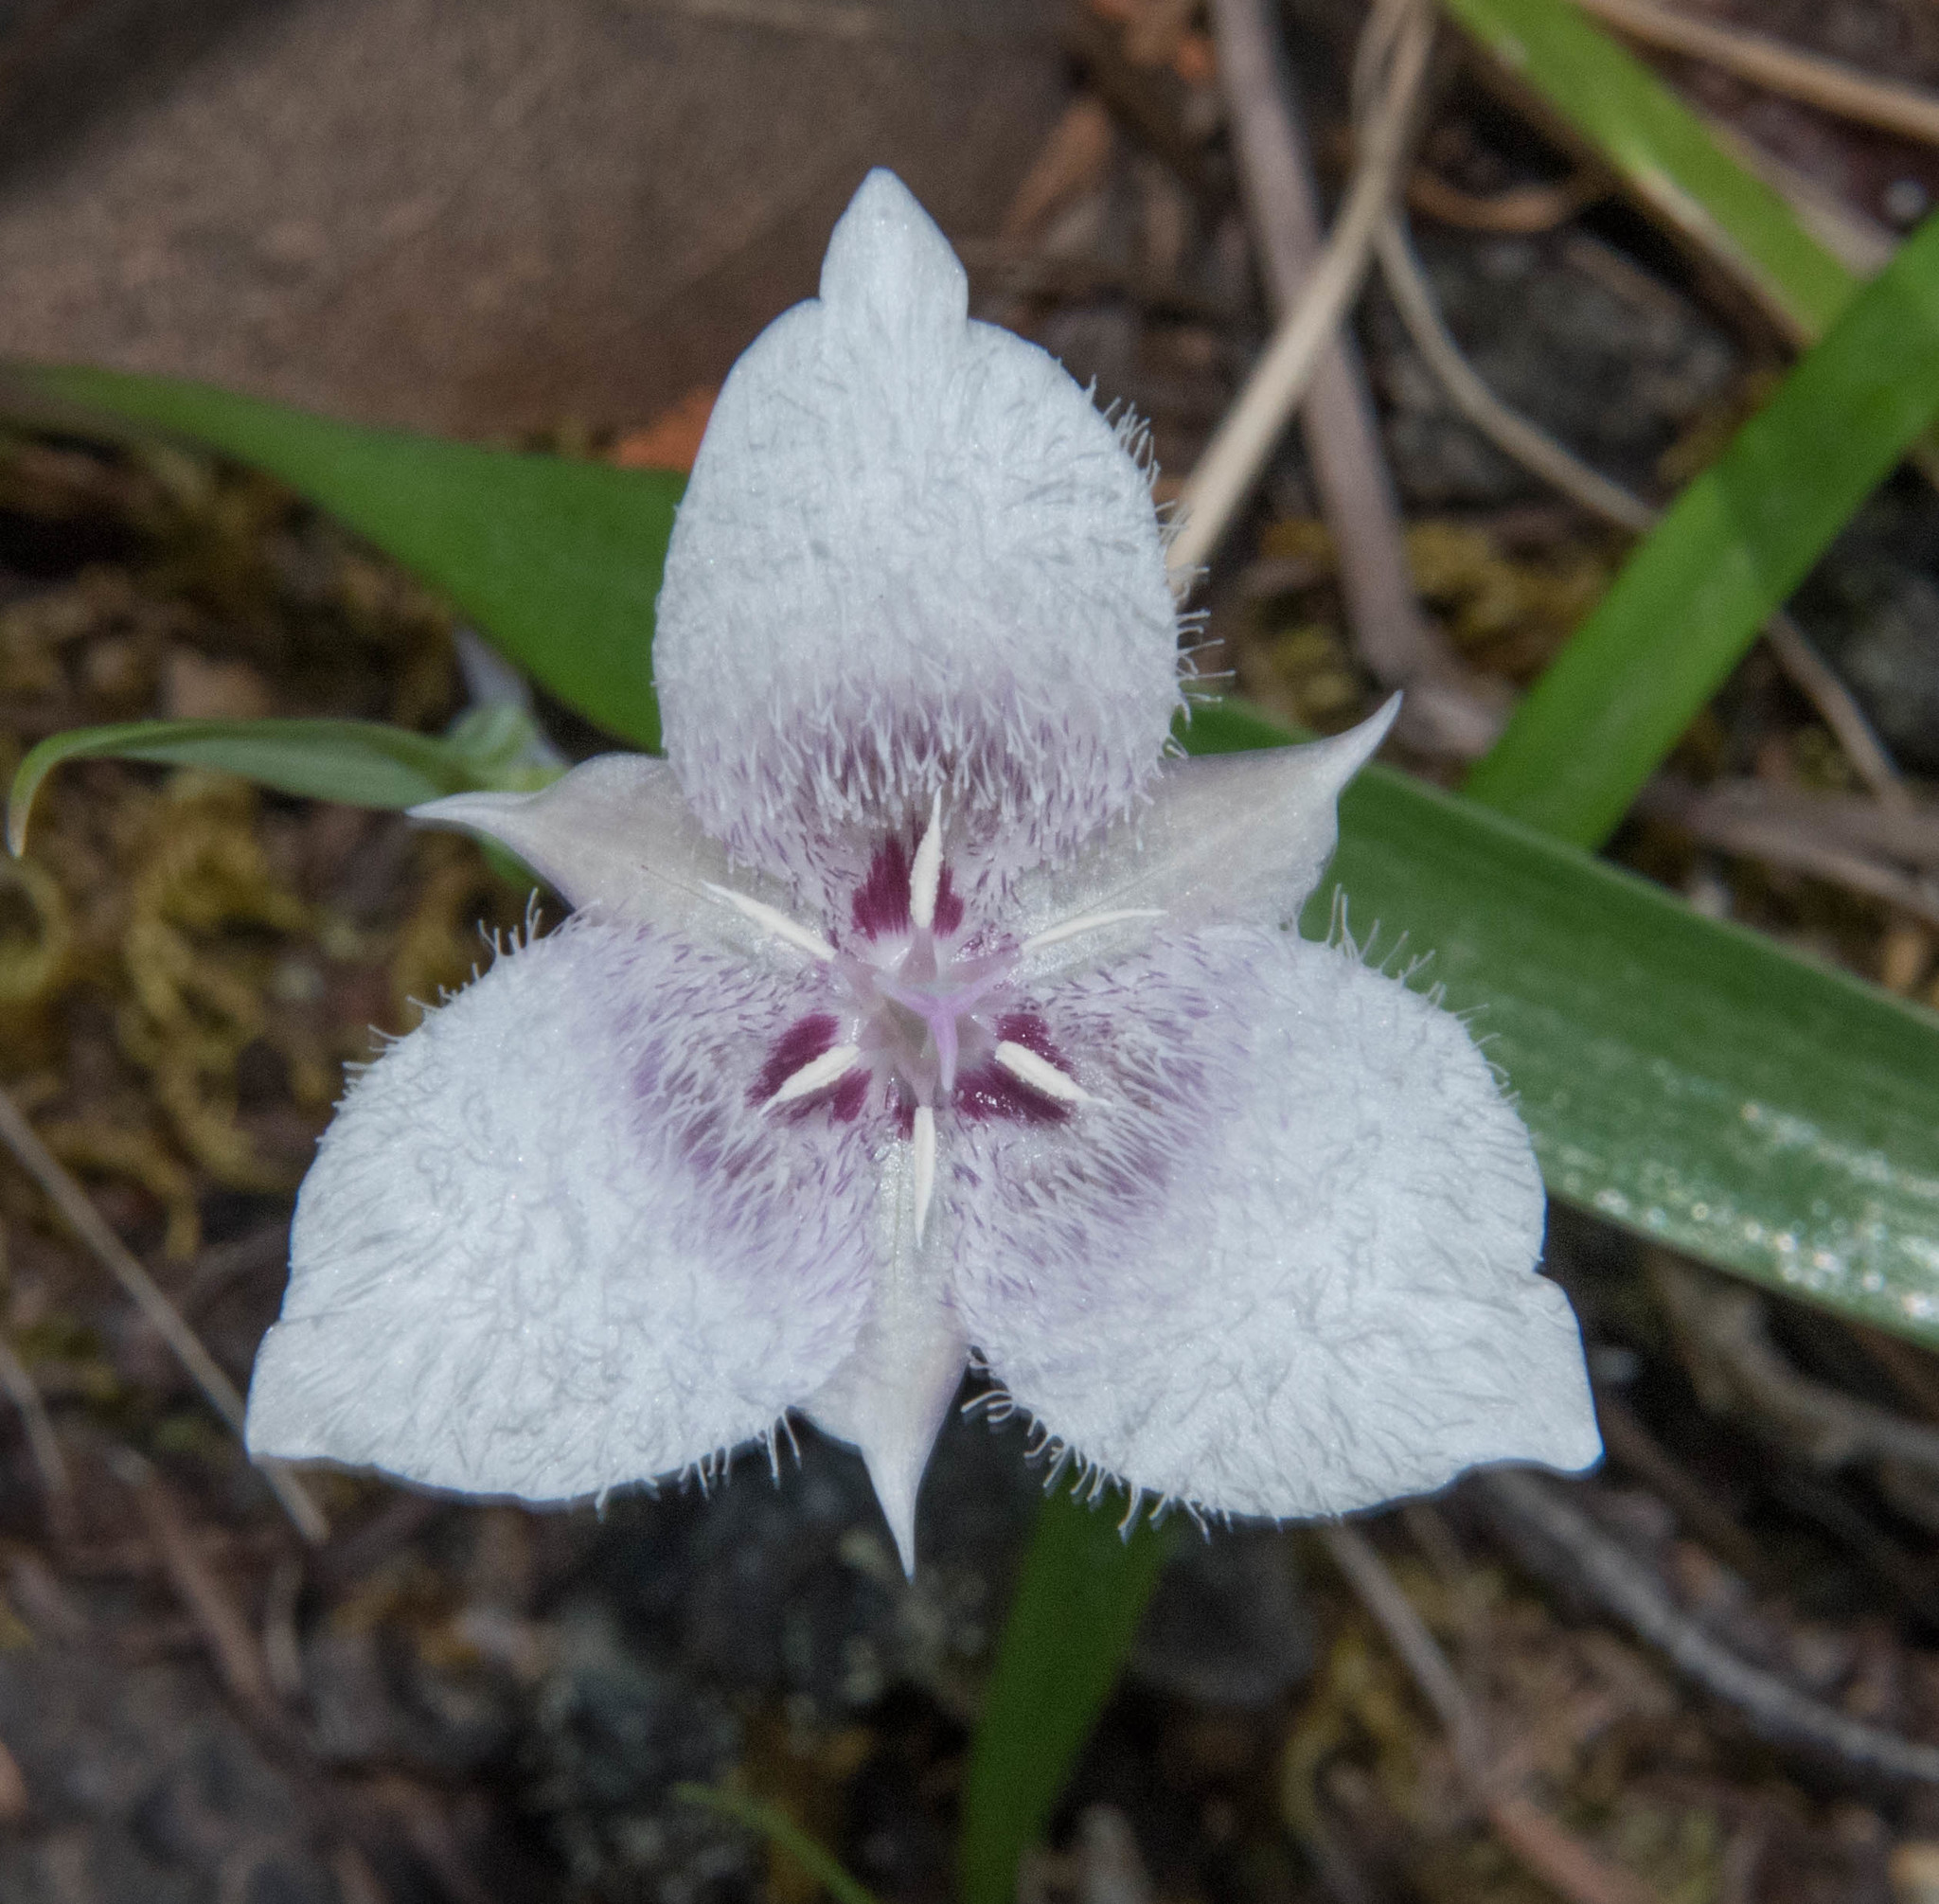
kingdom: Plantae
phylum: Tracheophyta
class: Liliopsida
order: Liliales
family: Liliaceae
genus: Calochortus
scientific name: Calochortus tolmiei
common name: Pussy-ears
